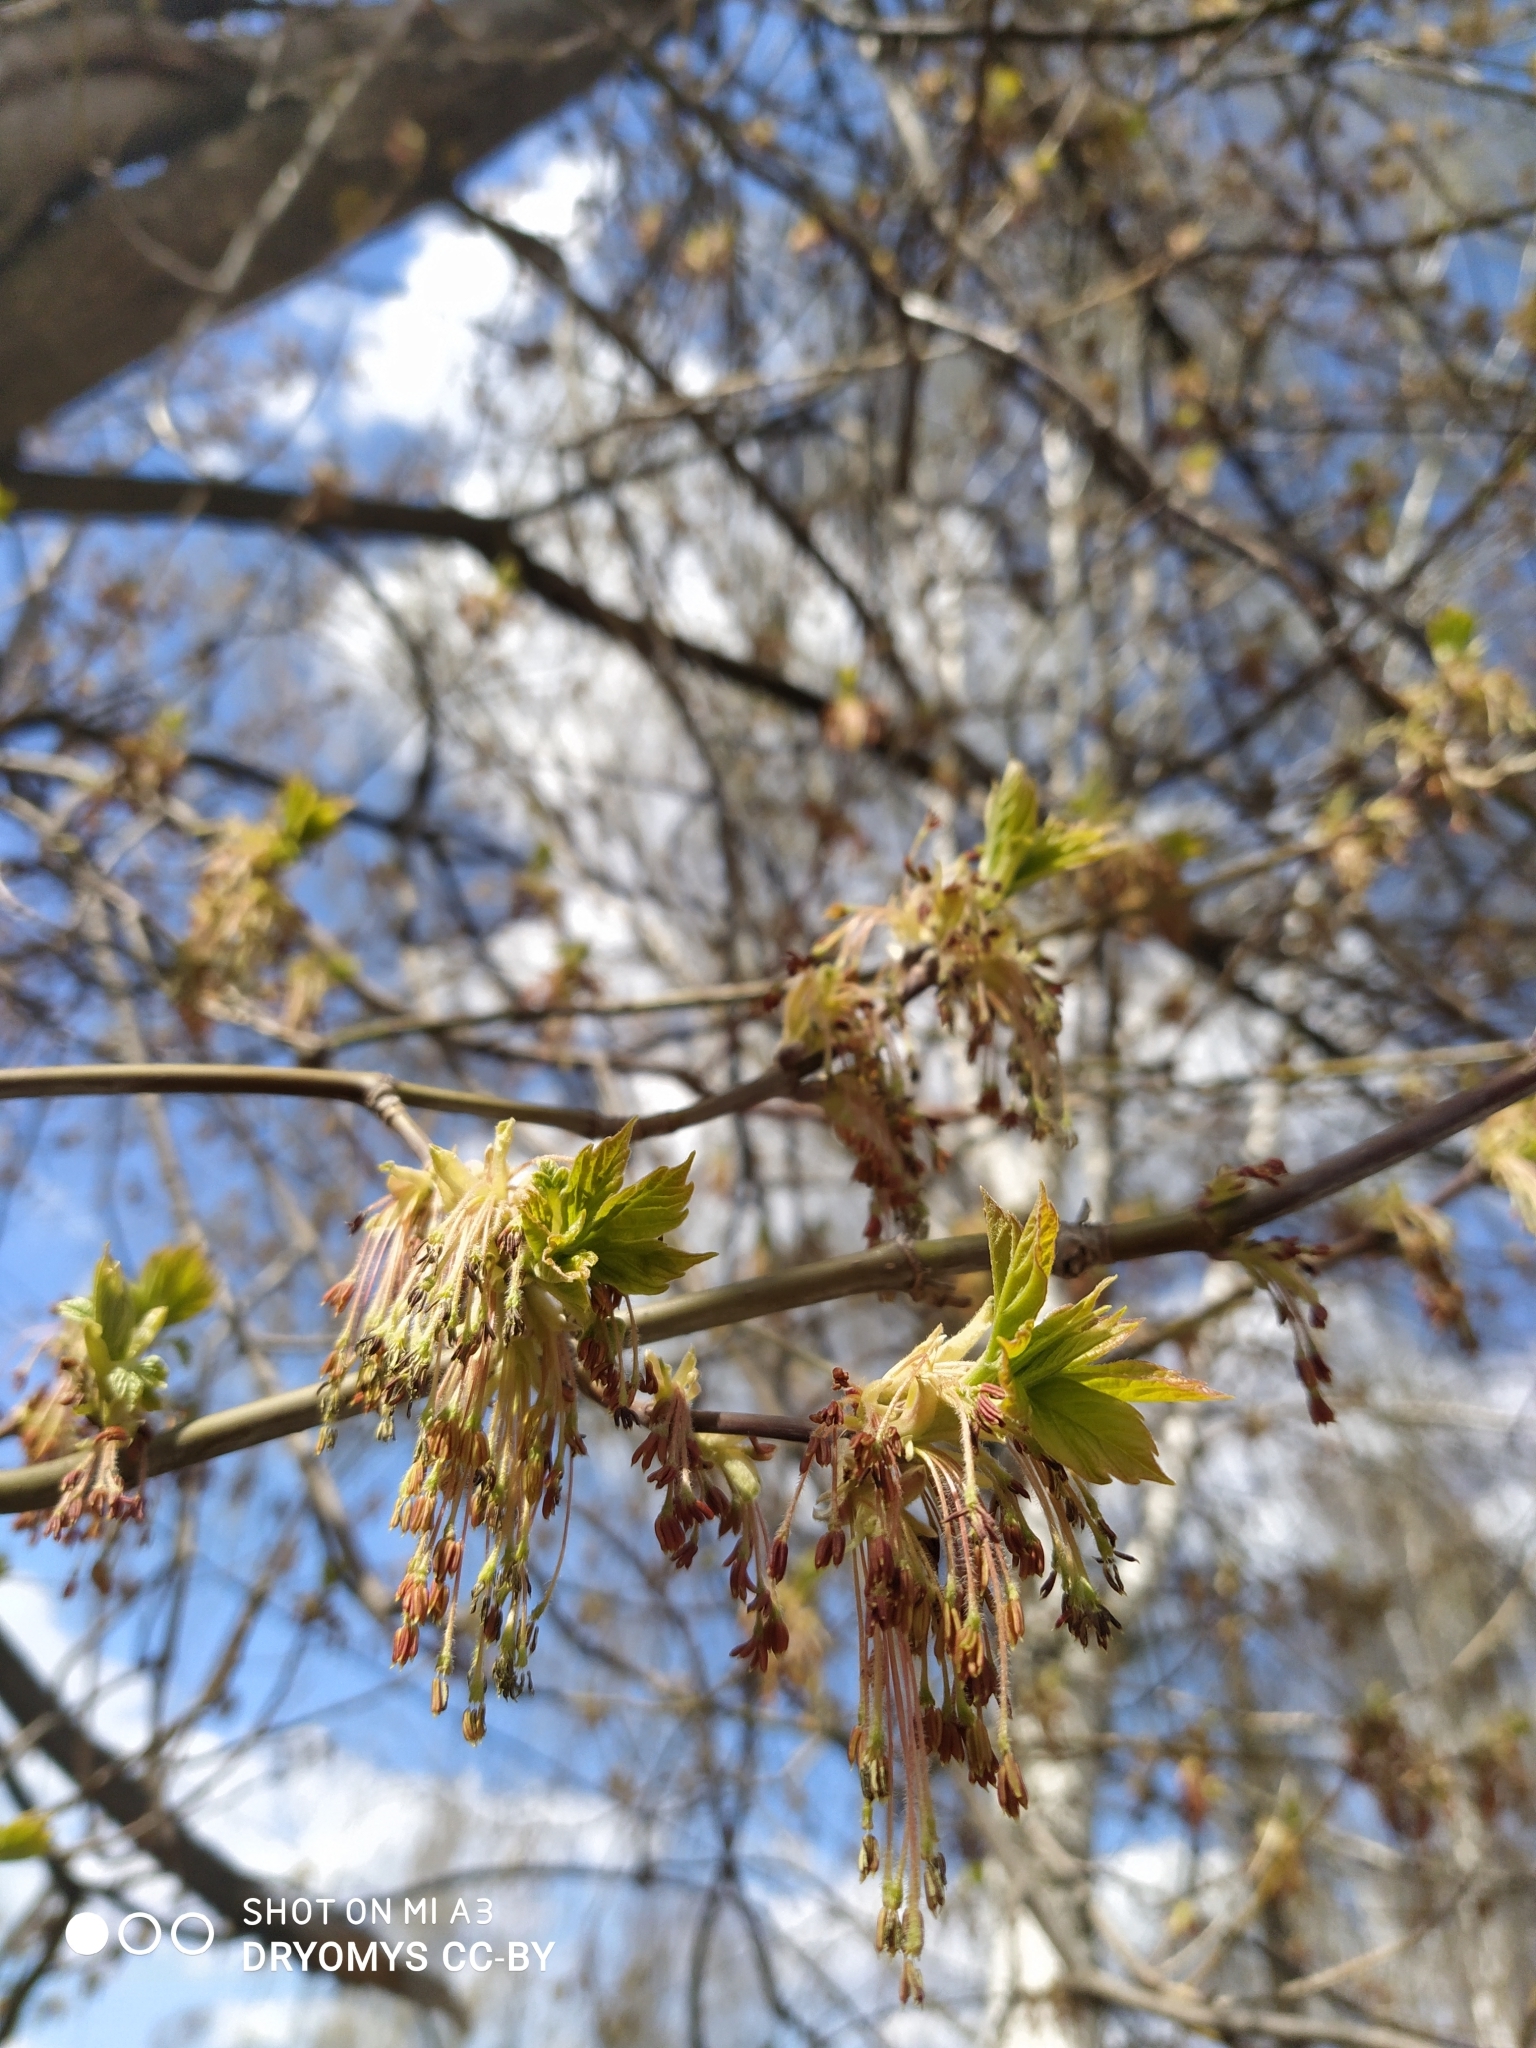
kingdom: Plantae
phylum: Tracheophyta
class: Magnoliopsida
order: Sapindales
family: Sapindaceae
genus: Acer
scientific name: Acer negundo
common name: Ashleaf maple
